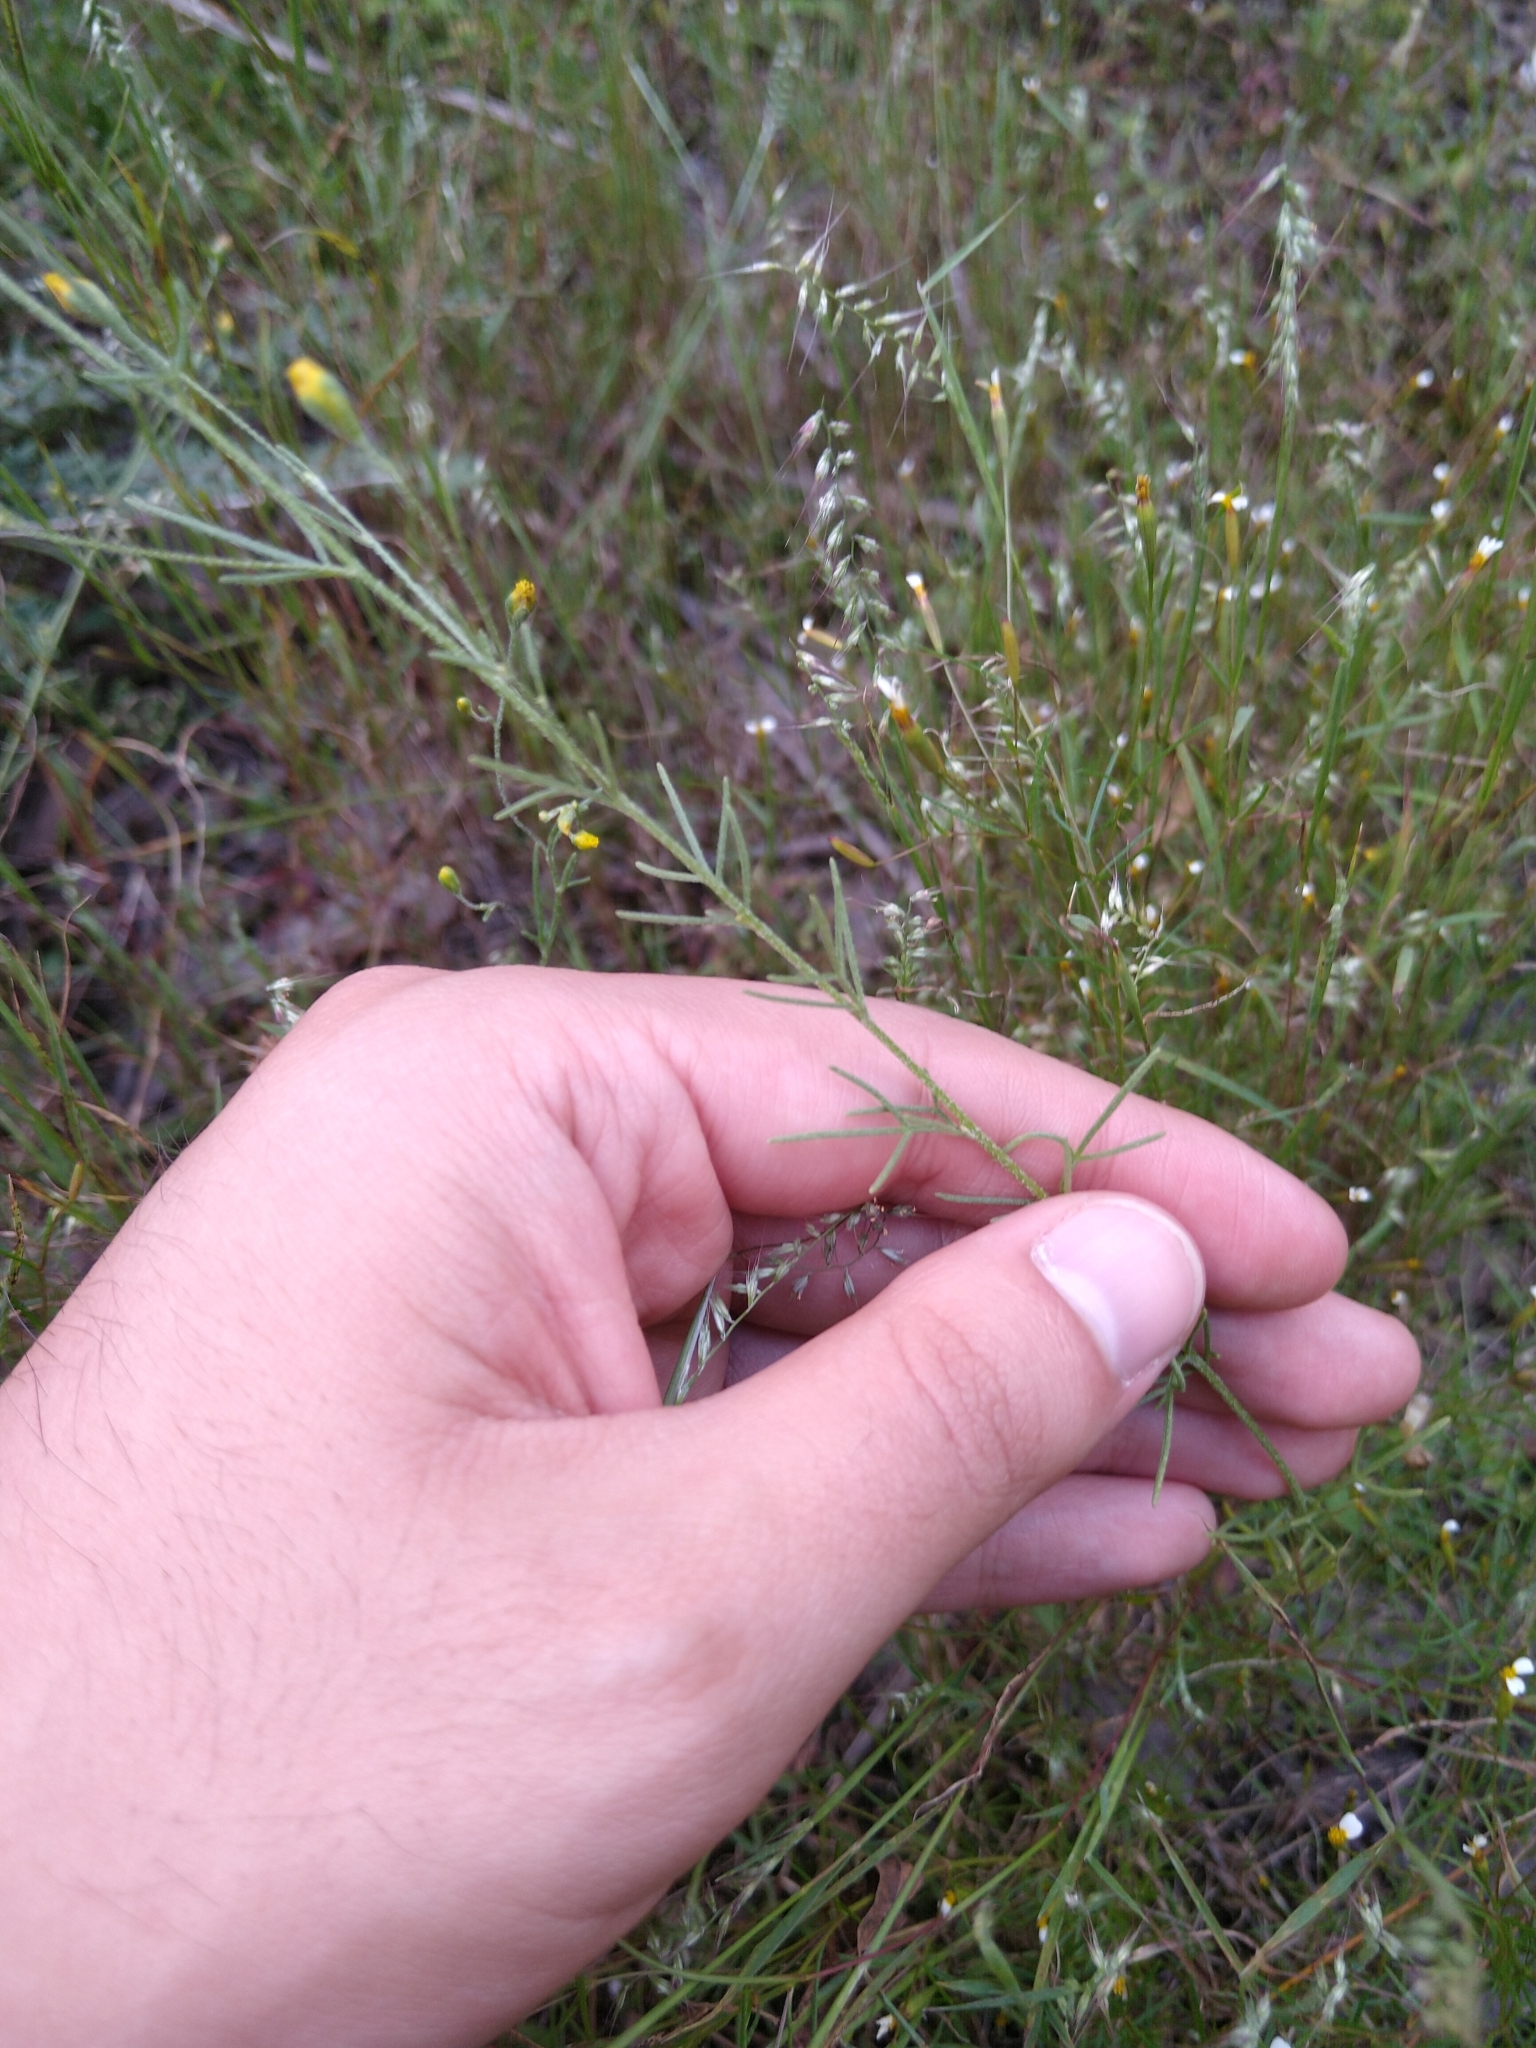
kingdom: Plantae
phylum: Tracheophyta
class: Magnoliopsida
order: Asterales
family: Asteraceae
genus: Schkuhria
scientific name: Schkuhria pinnata
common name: Dwarf marigold
